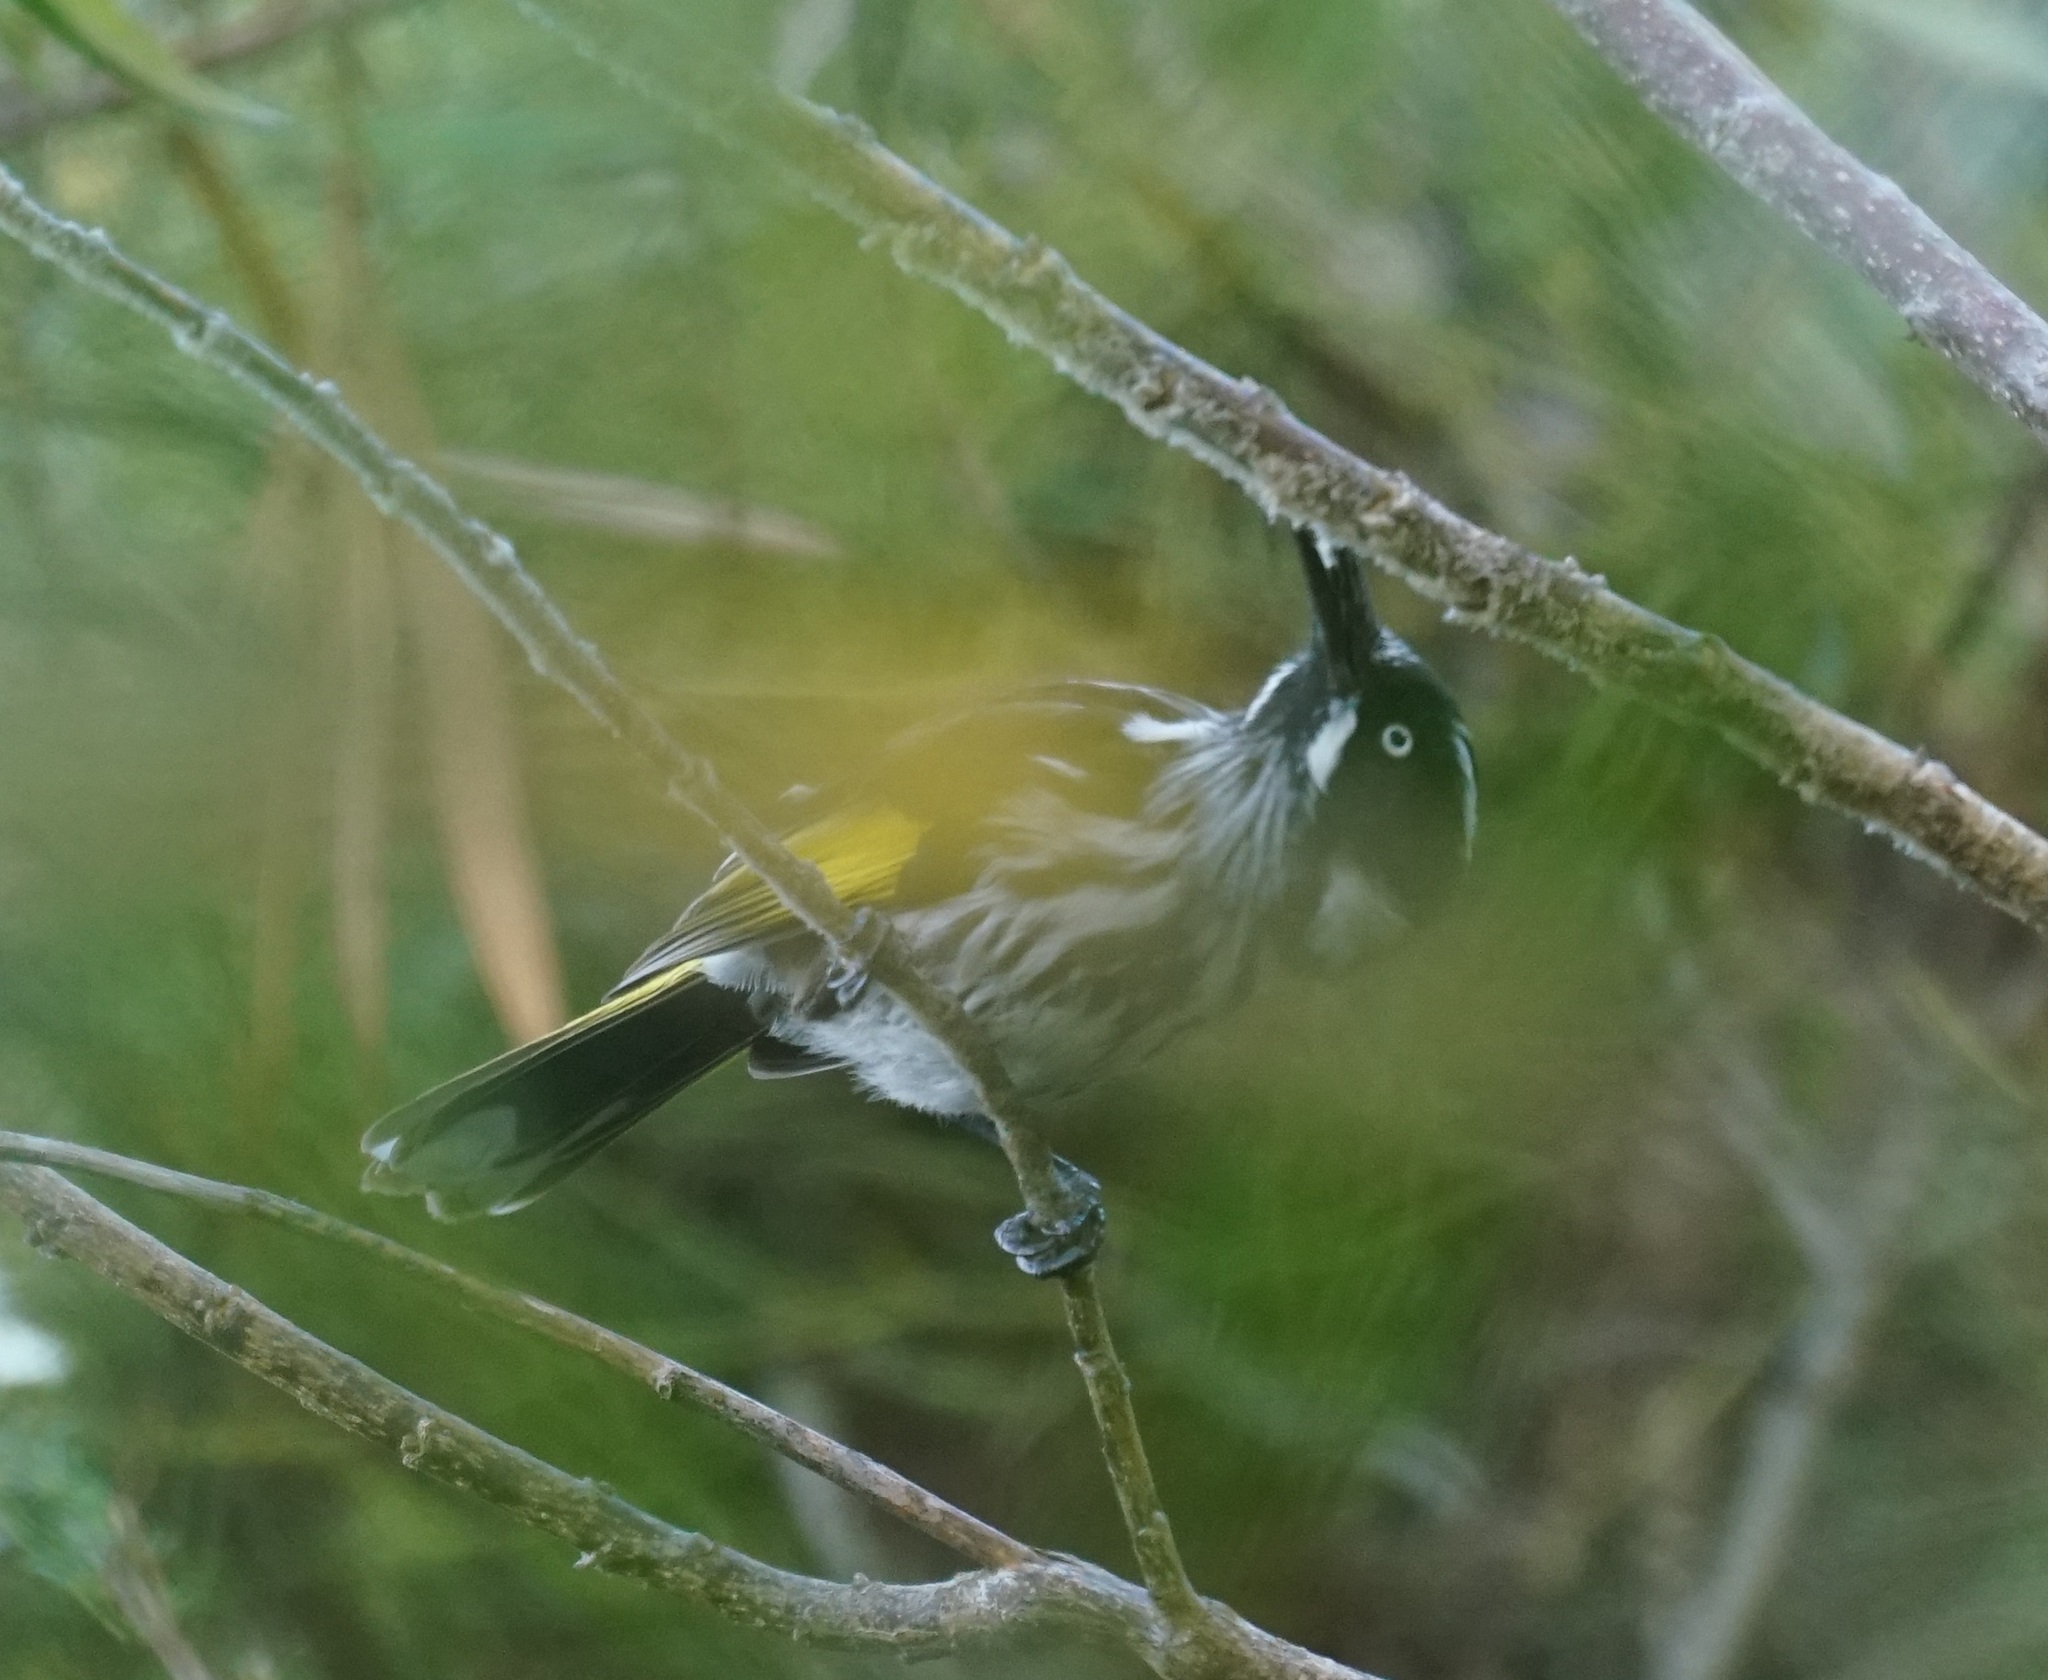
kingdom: Animalia
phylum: Chordata
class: Aves
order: Passeriformes
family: Meliphagidae
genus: Phylidonyris
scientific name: Phylidonyris novaehollandiae
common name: New holland honeyeater
